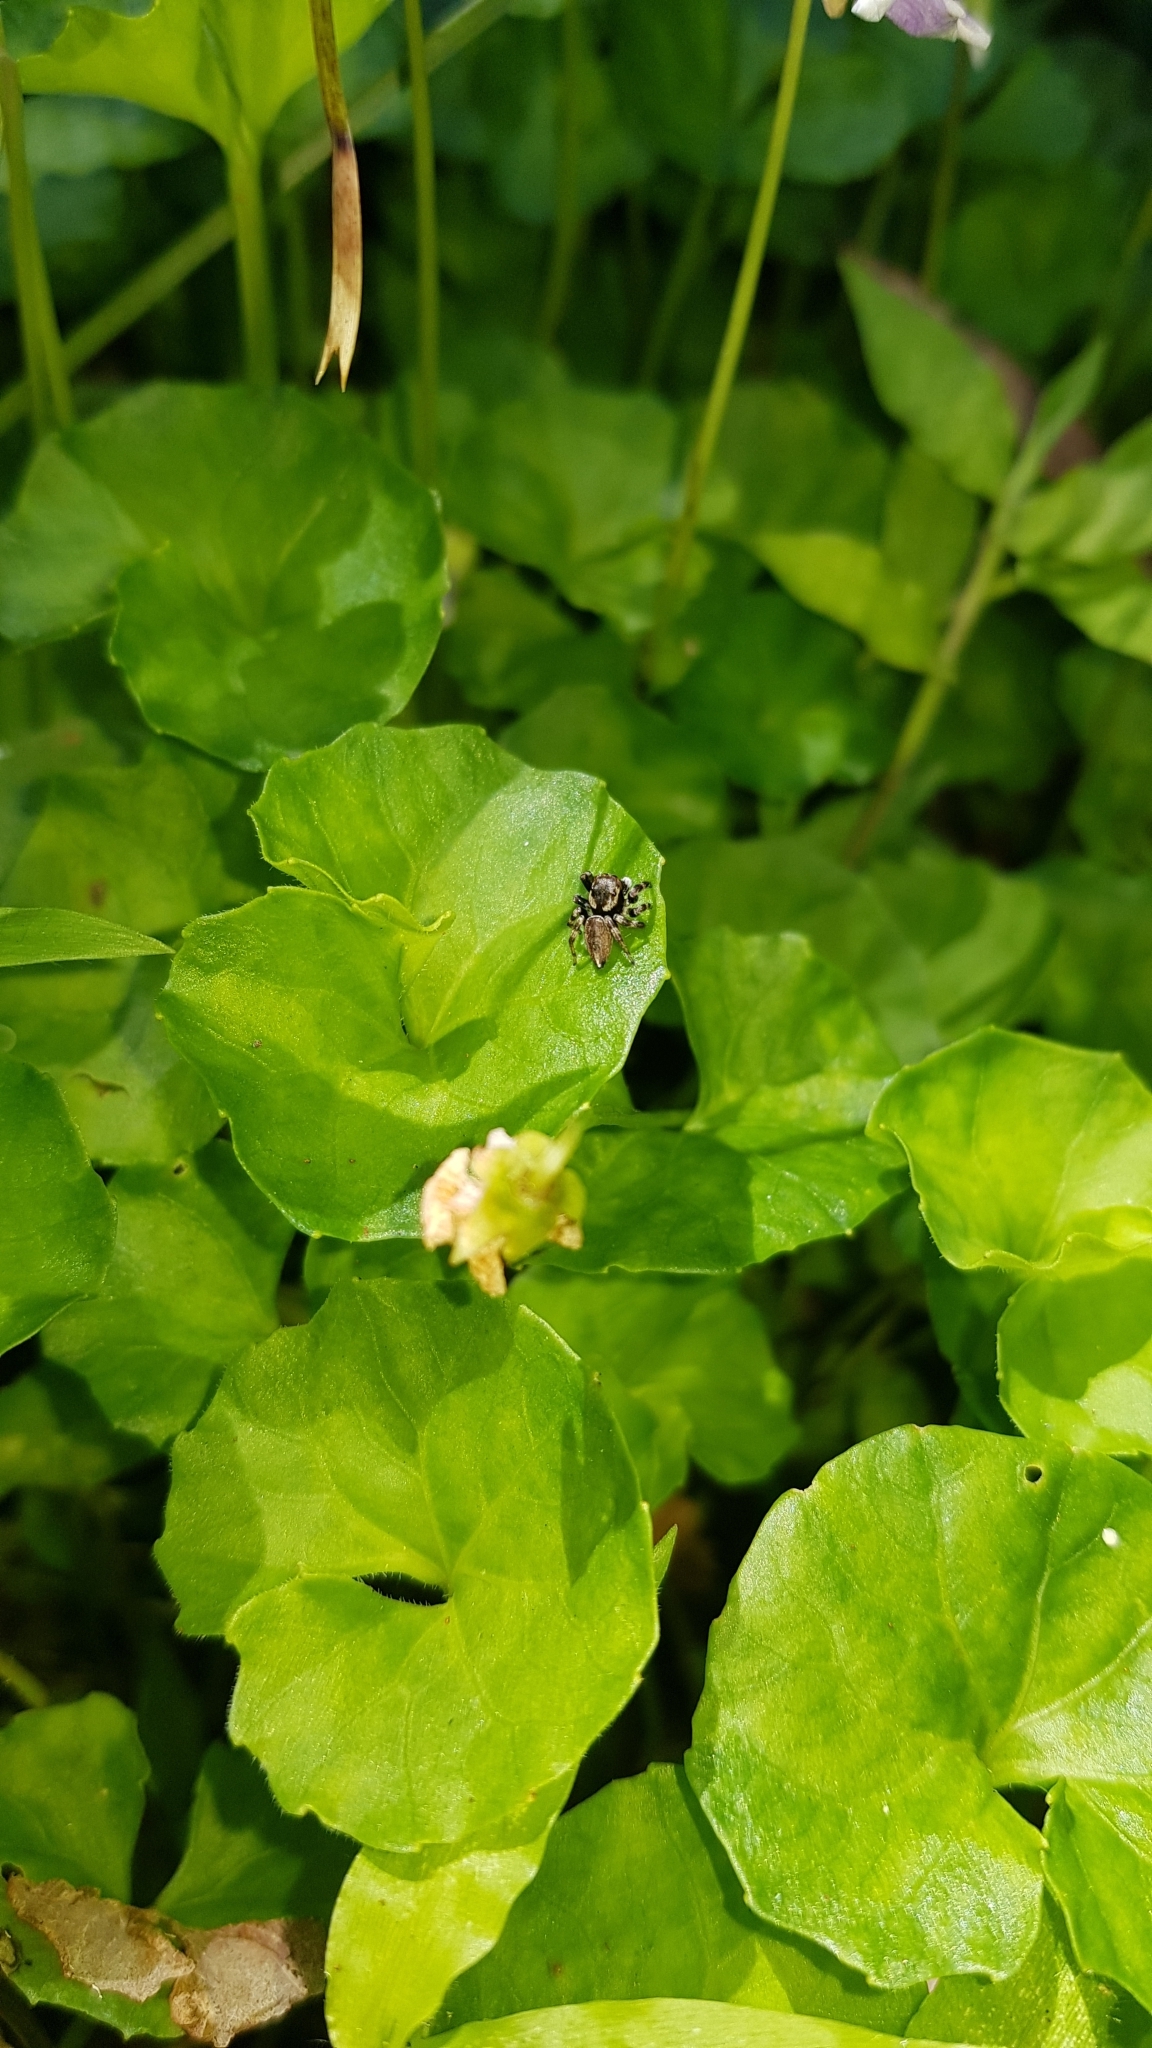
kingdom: Animalia
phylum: Arthropoda
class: Arachnida
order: Araneae
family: Salticidae
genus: Maratus
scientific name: Maratus scutulatus
